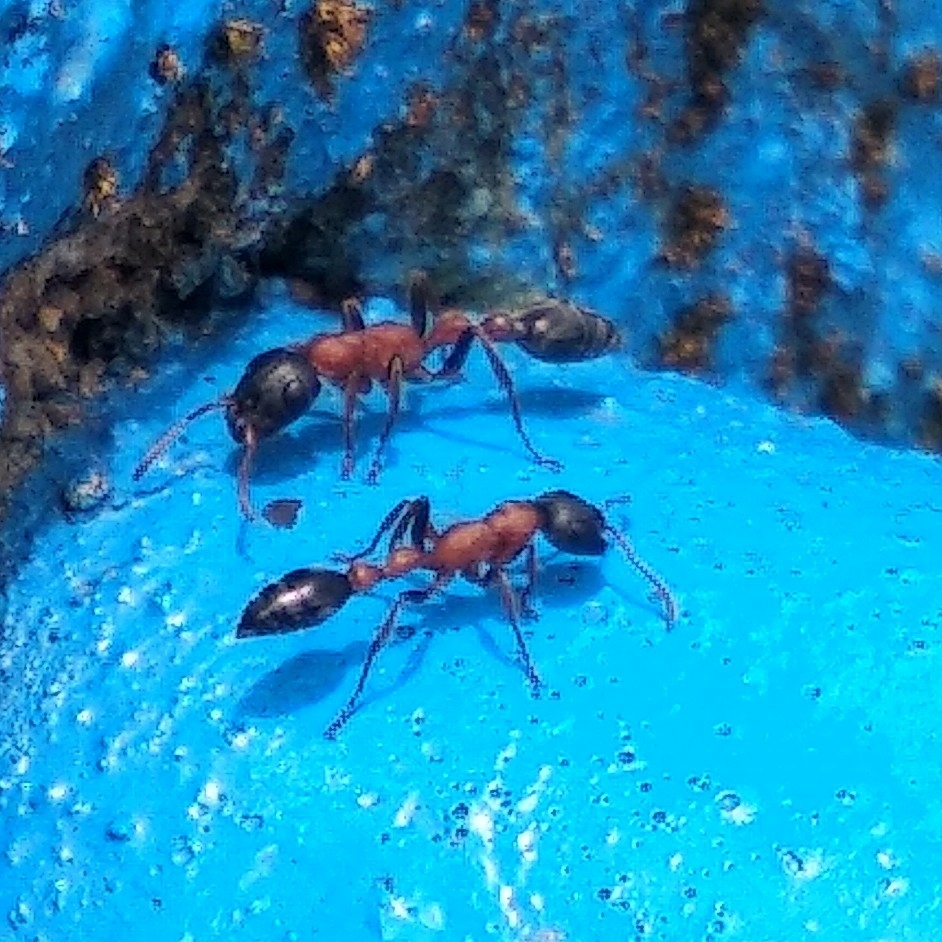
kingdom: Animalia
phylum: Arthropoda
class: Insecta
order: Hymenoptera
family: Formicidae
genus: Tetraponera
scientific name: Tetraponera rufonigra
